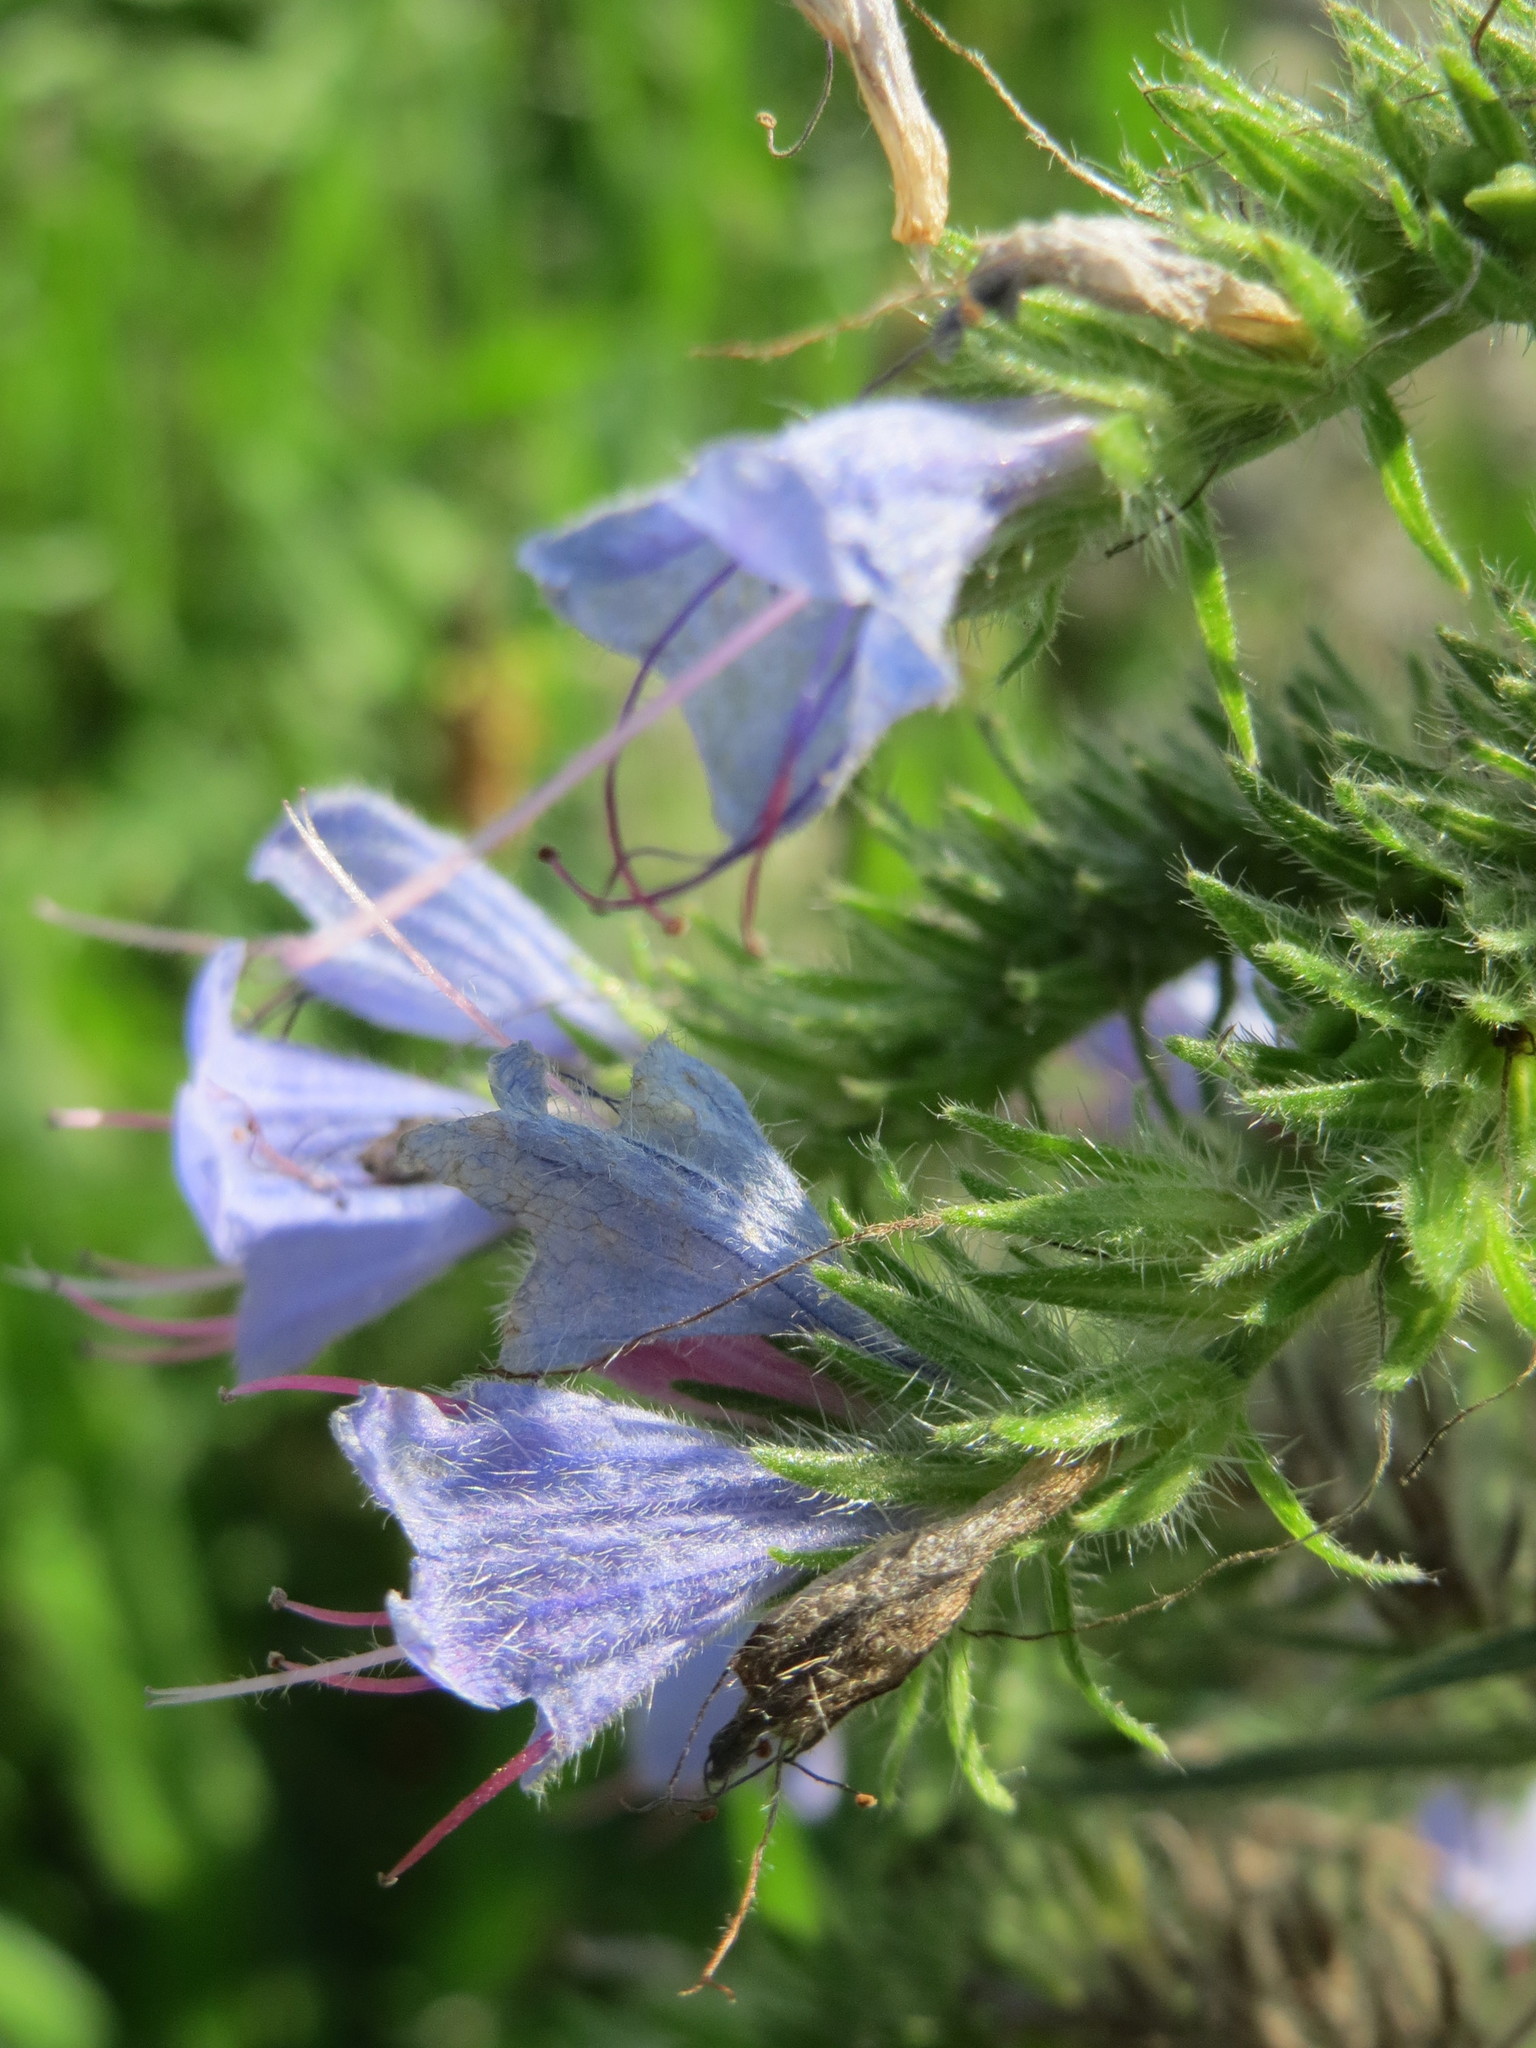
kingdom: Plantae
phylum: Tracheophyta
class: Magnoliopsida
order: Boraginales
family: Boraginaceae
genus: Echium
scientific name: Echium vulgare
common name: Common viper's bugloss
